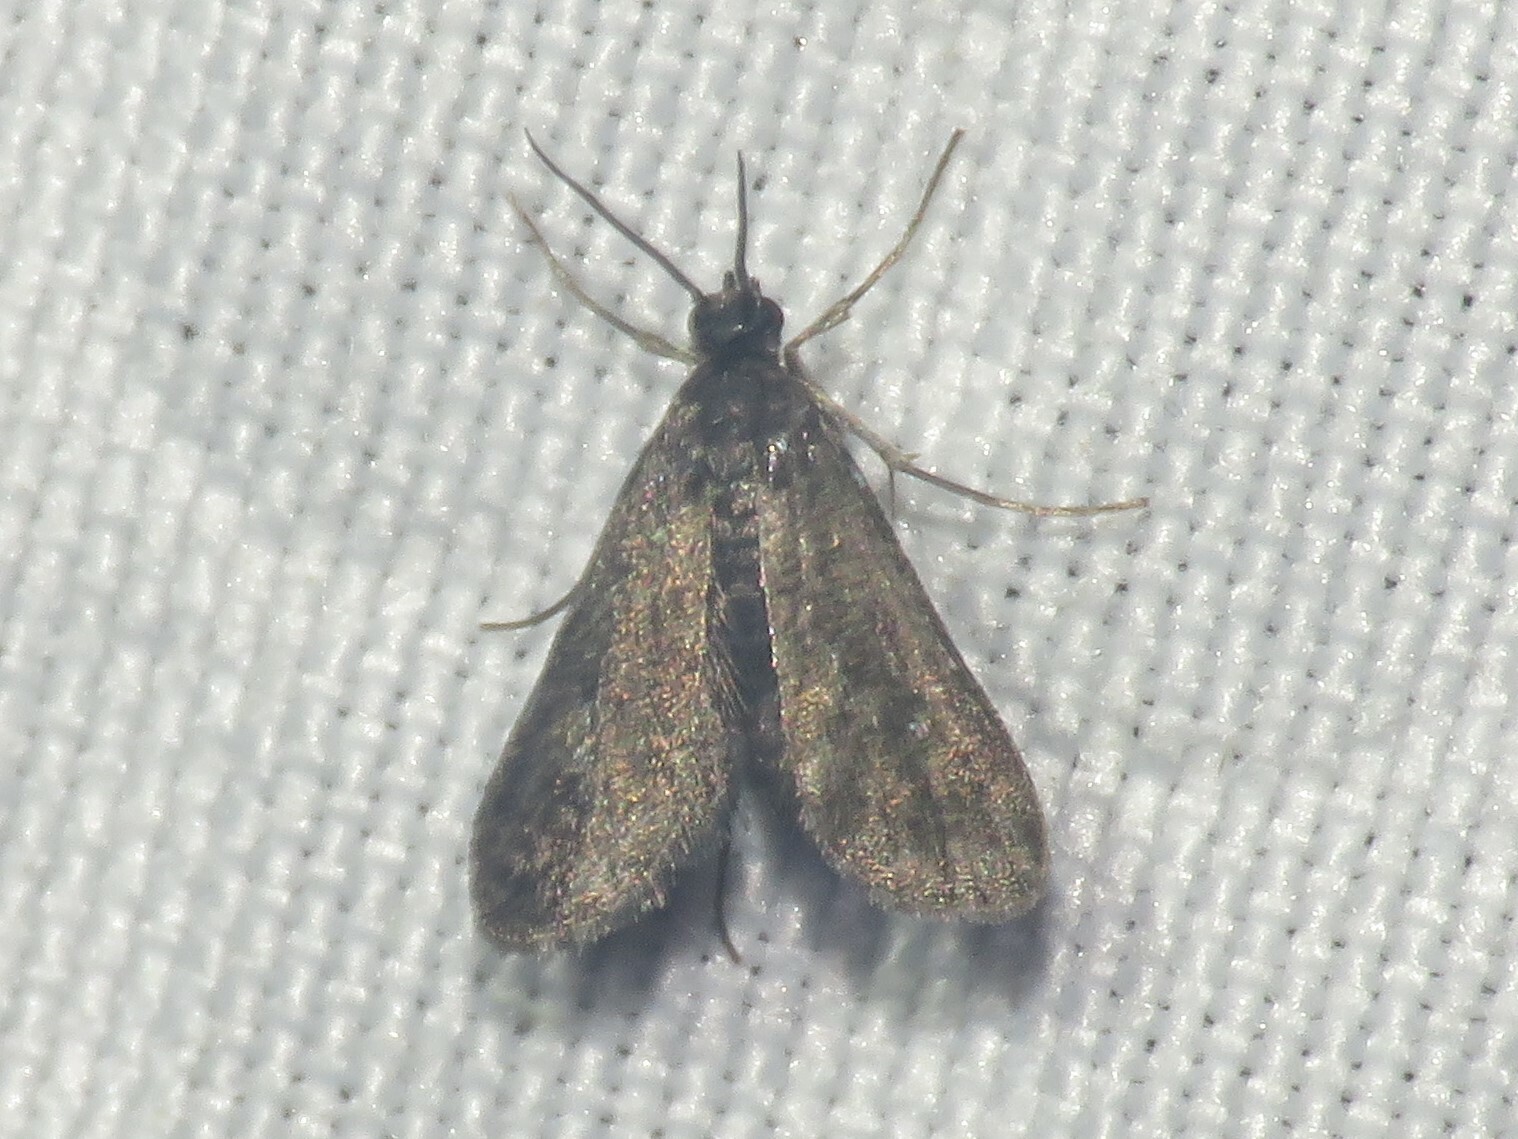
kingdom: Animalia
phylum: Arthropoda
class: Insecta
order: Lepidoptera
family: Crambidae
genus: Elophila
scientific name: Elophila tinealis
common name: Black duckweed moth
